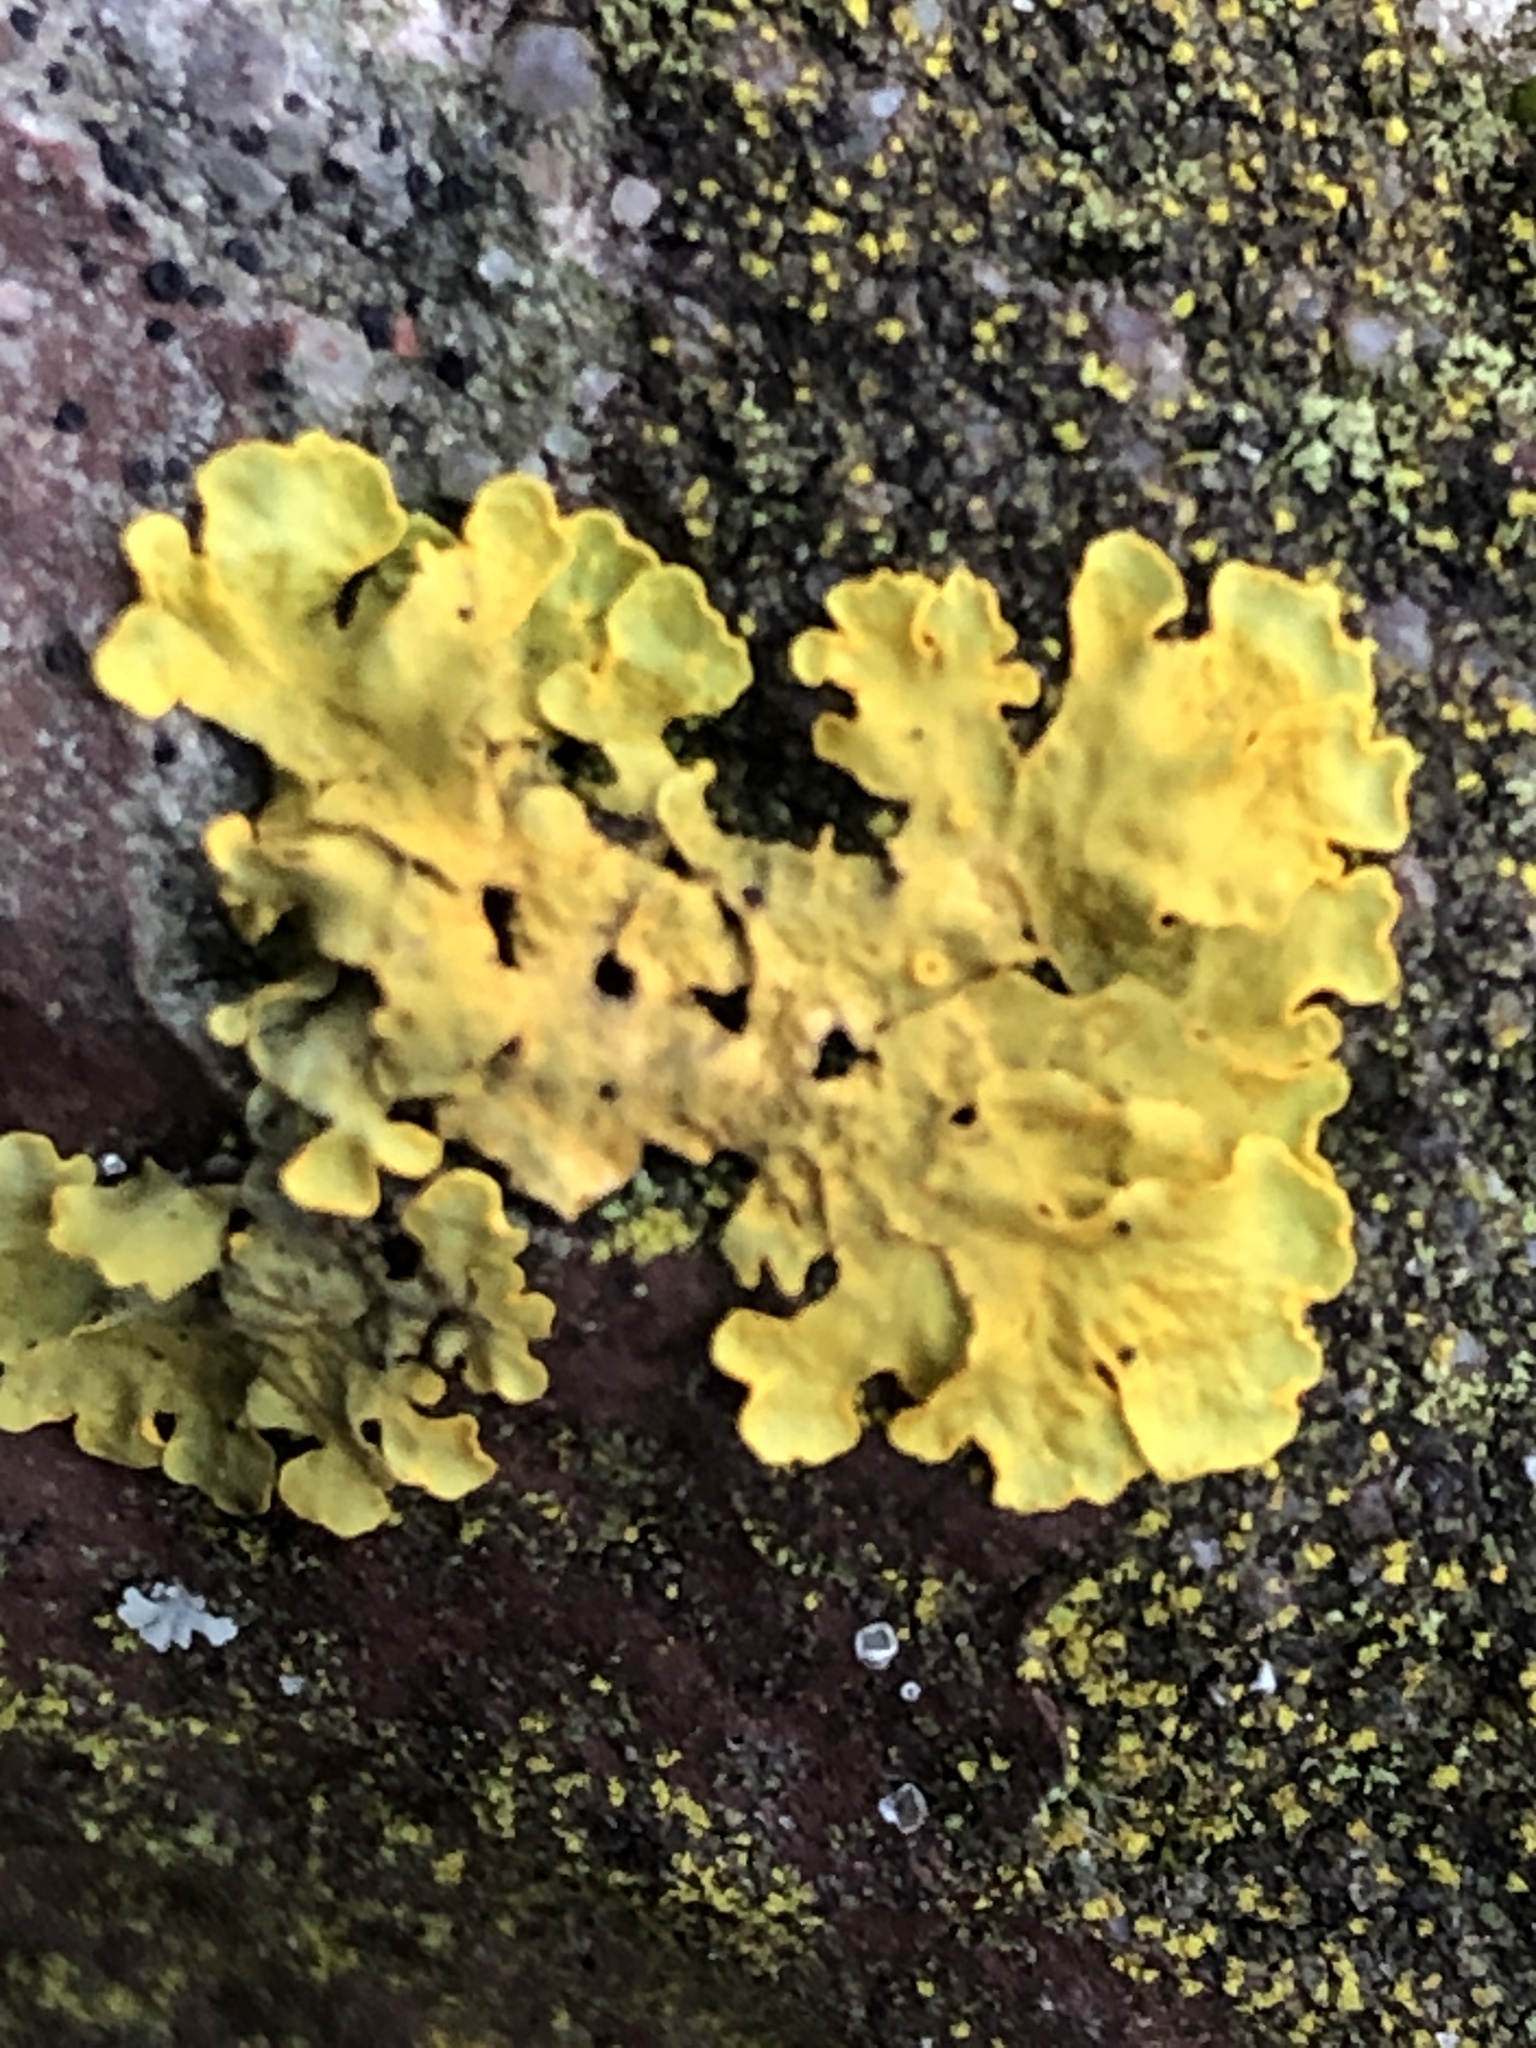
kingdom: Fungi
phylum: Ascomycota
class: Lecanoromycetes
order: Teloschistales
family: Teloschistaceae
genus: Xanthoria
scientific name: Xanthoria parietina
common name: Common orange lichen
